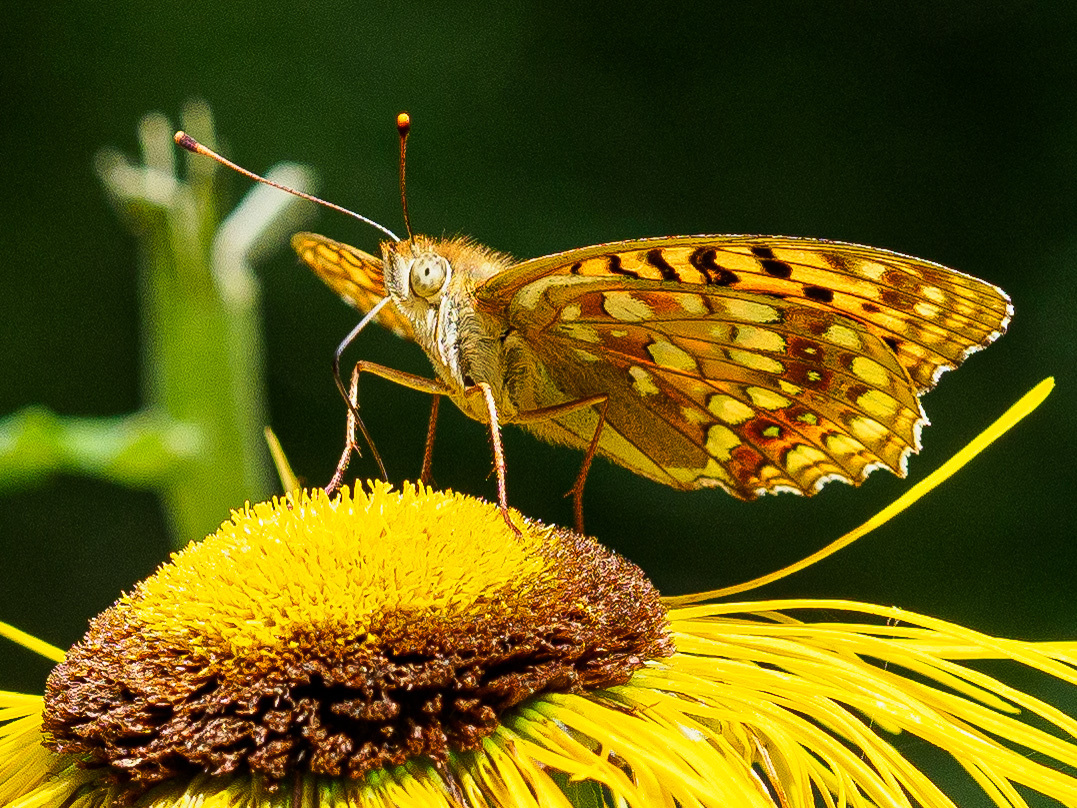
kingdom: Animalia
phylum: Arthropoda
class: Insecta
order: Lepidoptera
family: Nymphalidae
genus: Fabriciana
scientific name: Fabriciana adippe
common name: High brown fritillary
